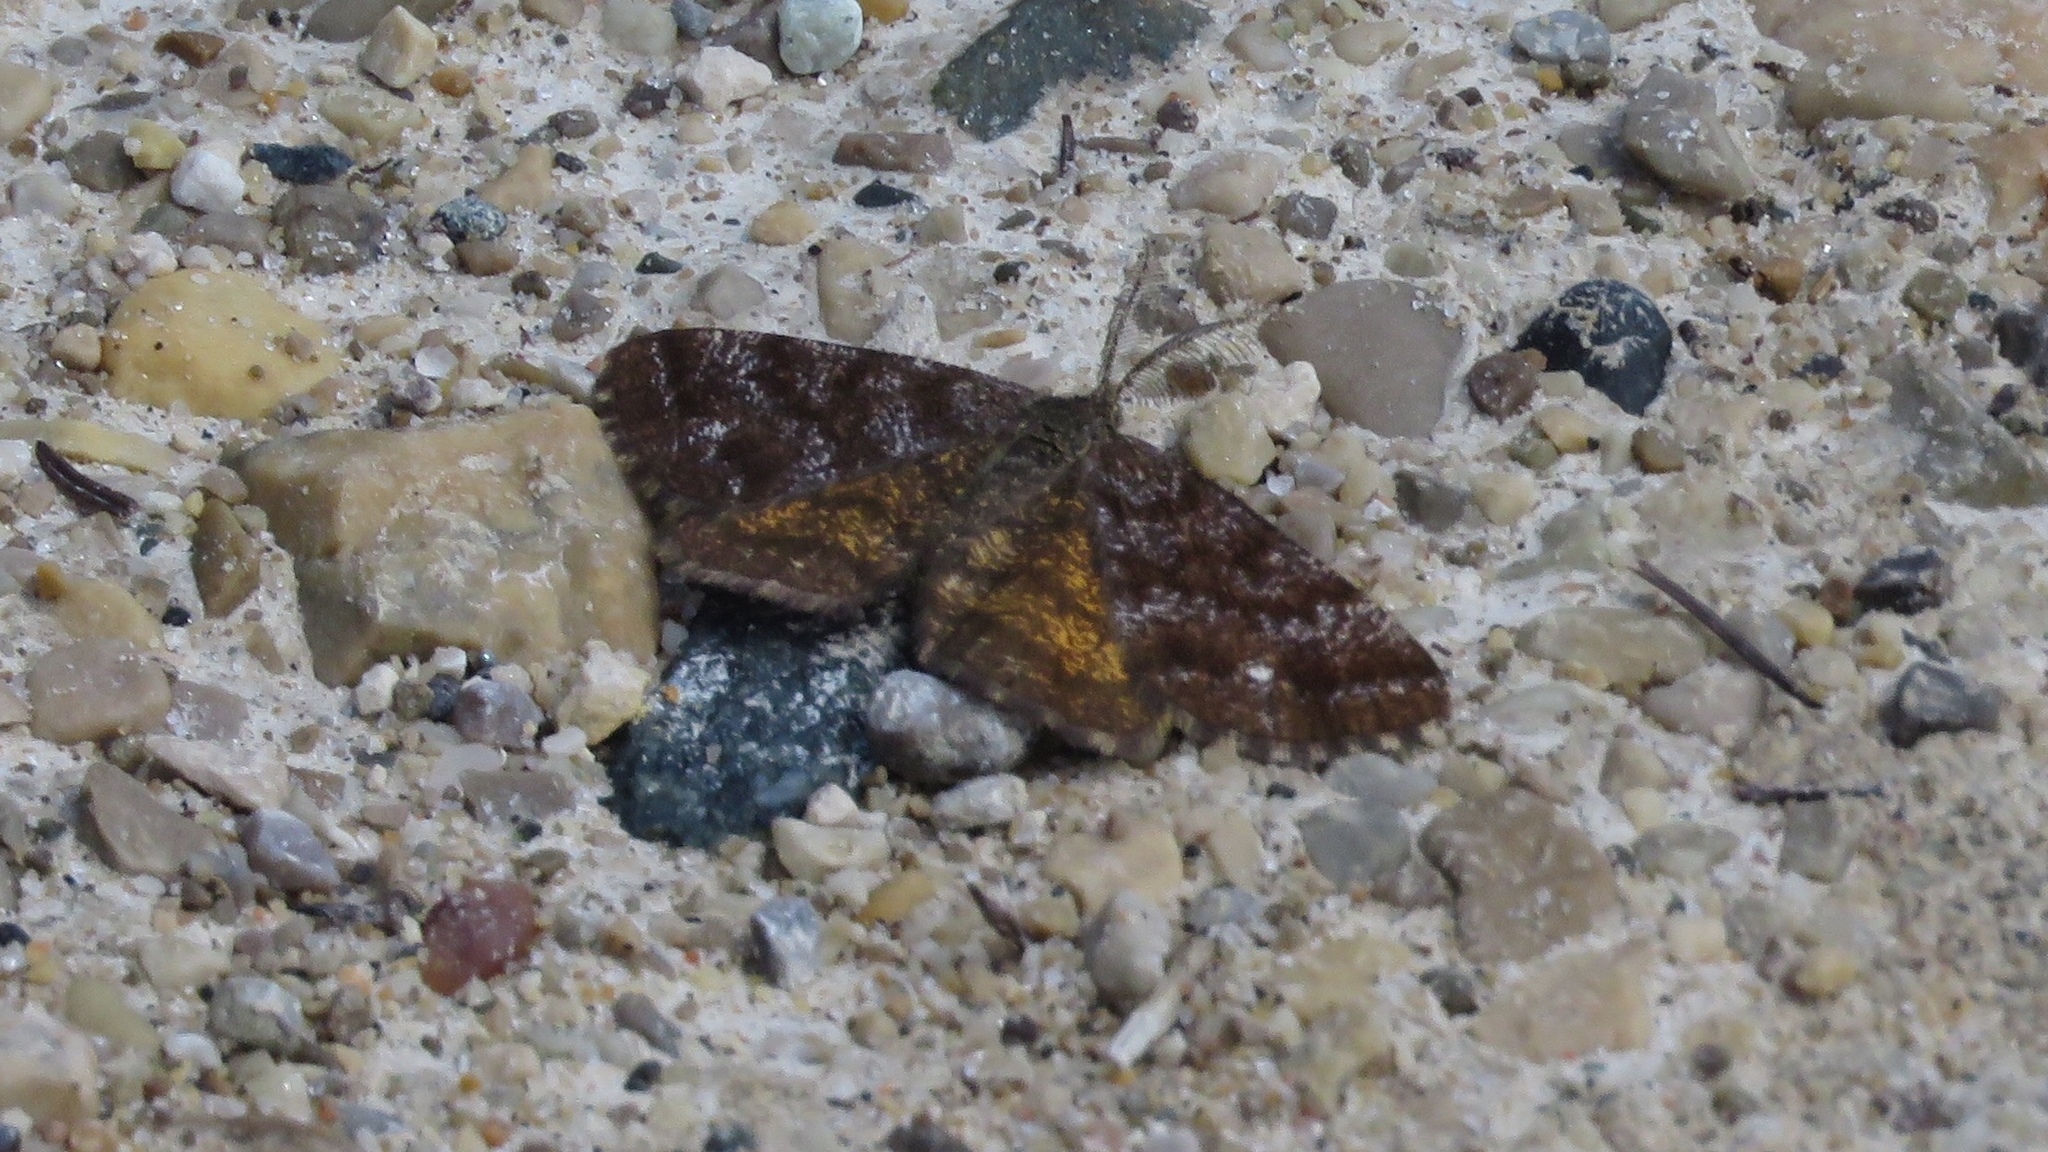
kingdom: Animalia
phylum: Arthropoda
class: Insecta
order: Lepidoptera
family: Geometridae
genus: Ematurga
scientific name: Ematurga amitaria
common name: Cranberry spanworm moth
